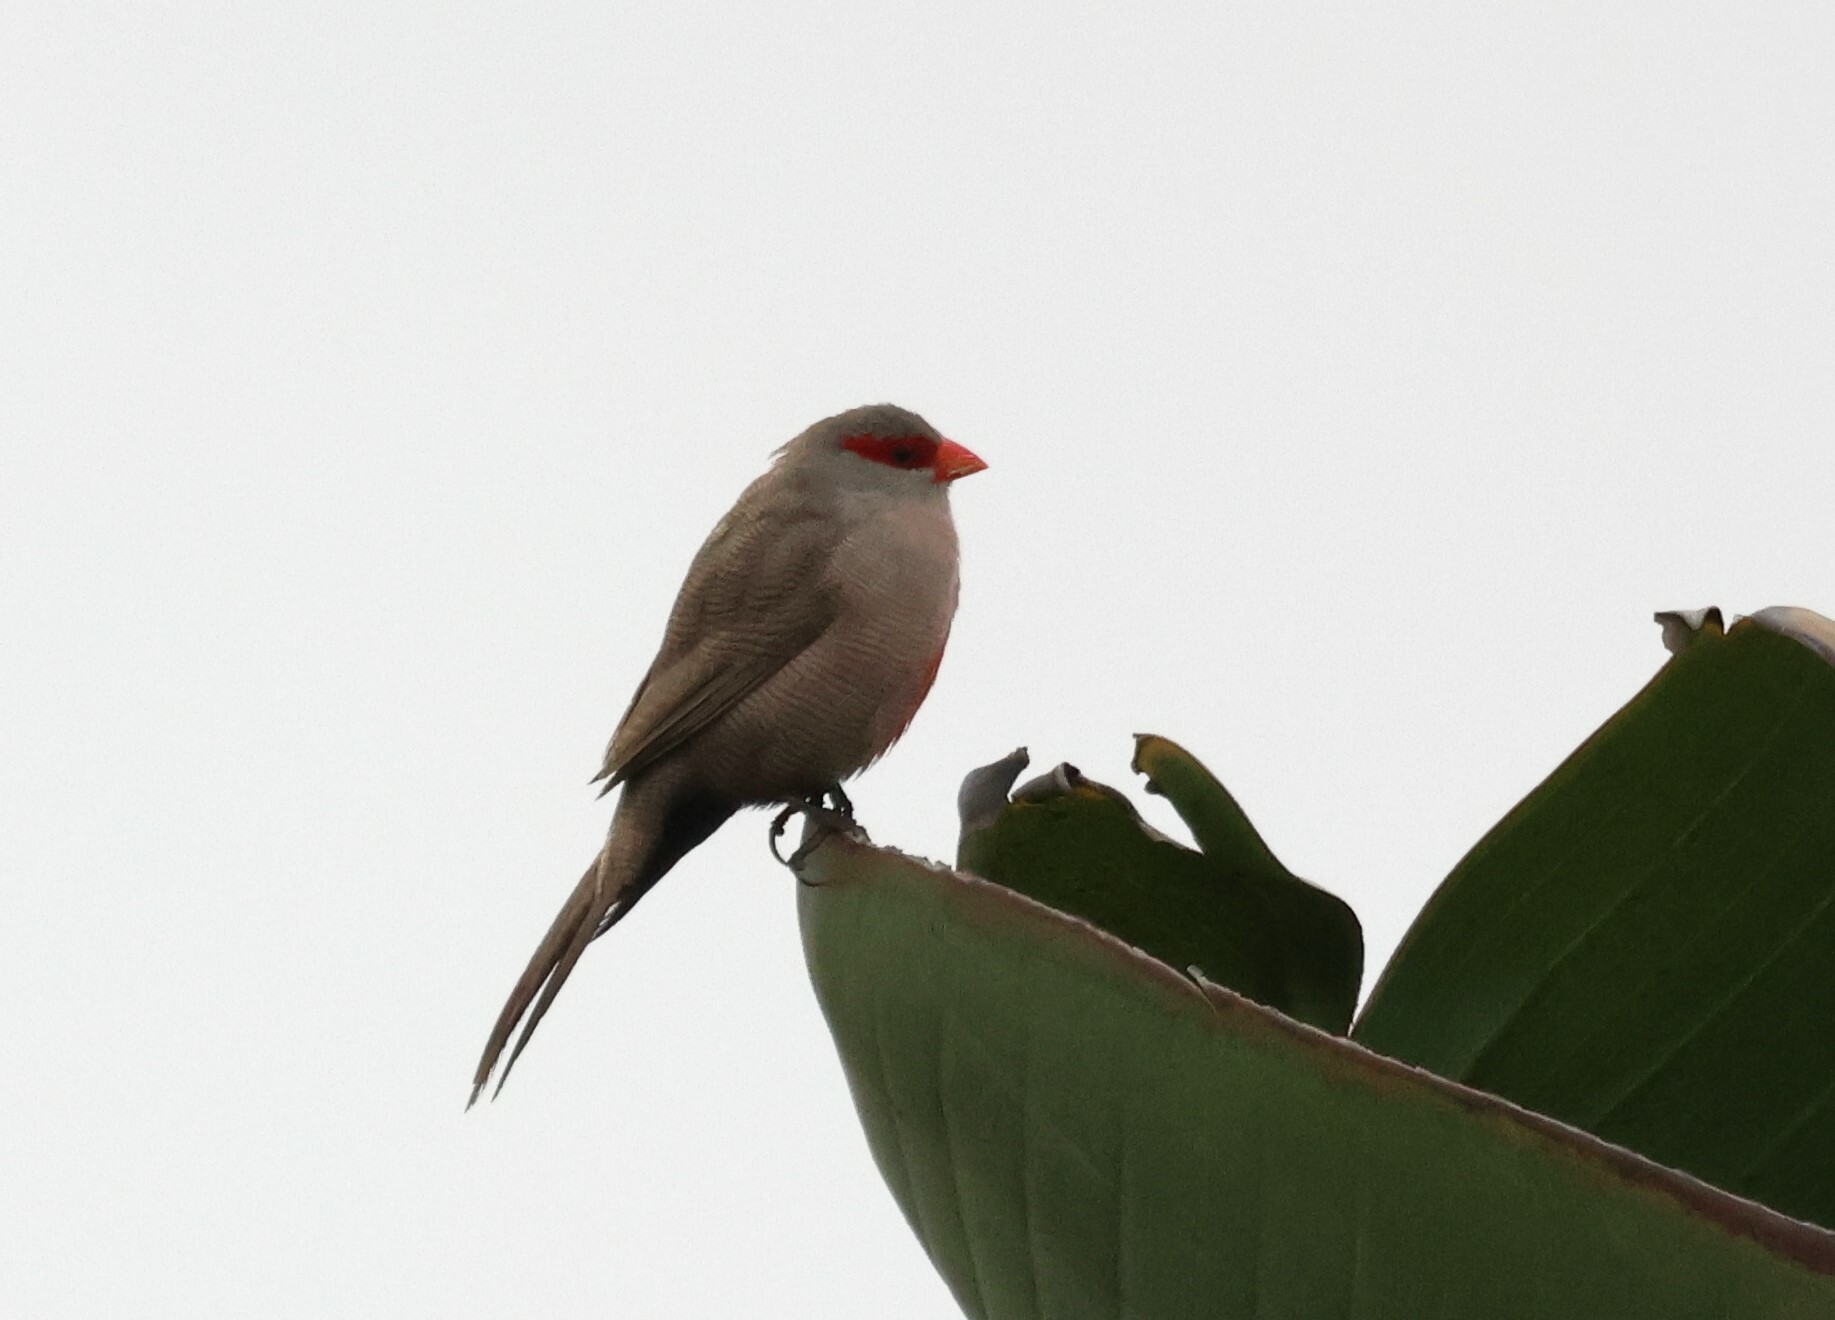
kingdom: Animalia
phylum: Chordata
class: Aves
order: Passeriformes
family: Estrildidae
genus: Estrilda
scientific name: Estrilda astrild
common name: Common waxbill
